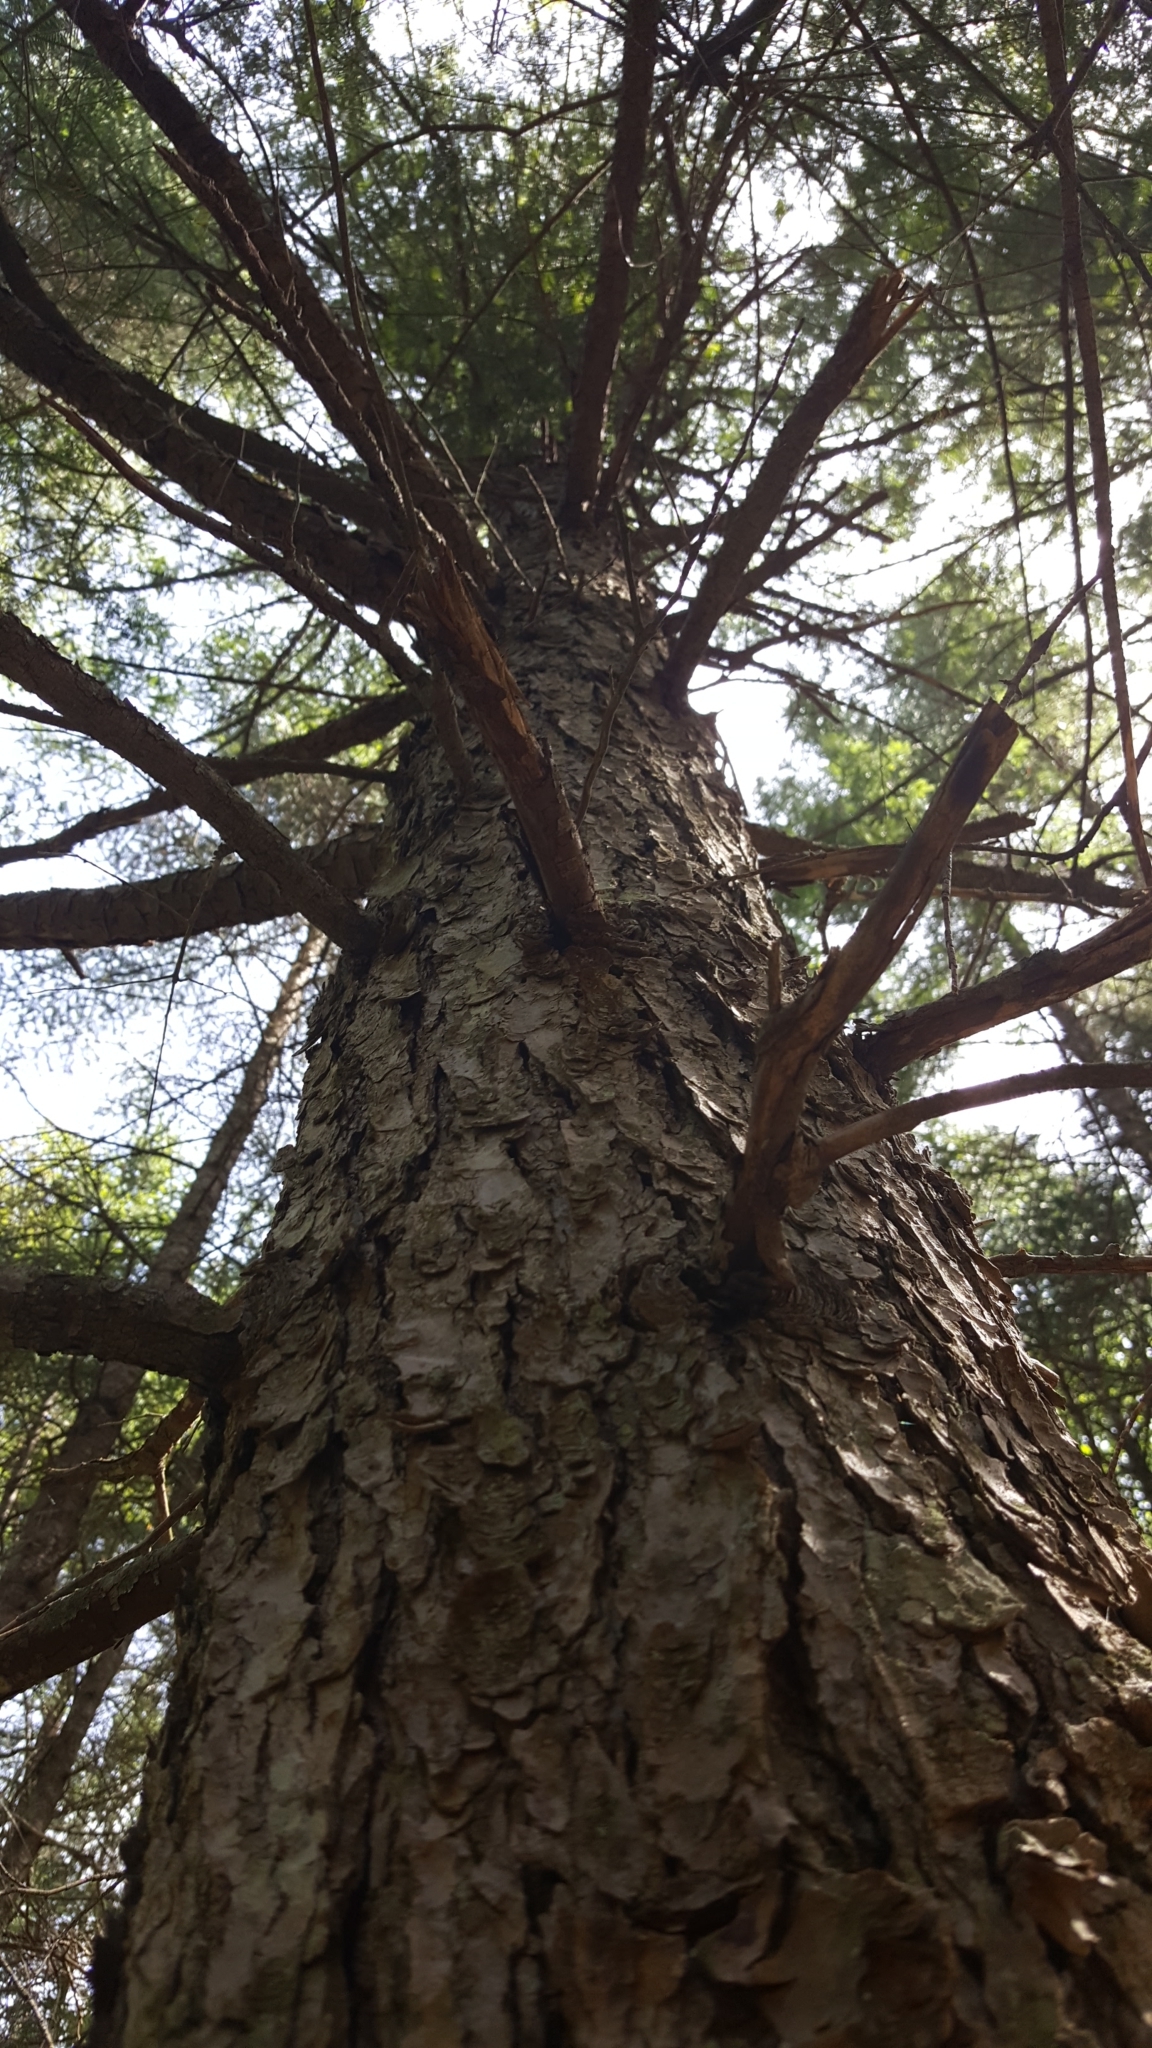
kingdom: Plantae
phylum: Tracheophyta
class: Pinopsida
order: Pinales
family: Pinaceae
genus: Tsuga
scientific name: Tsuga canadensis
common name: Eastern hemlock
